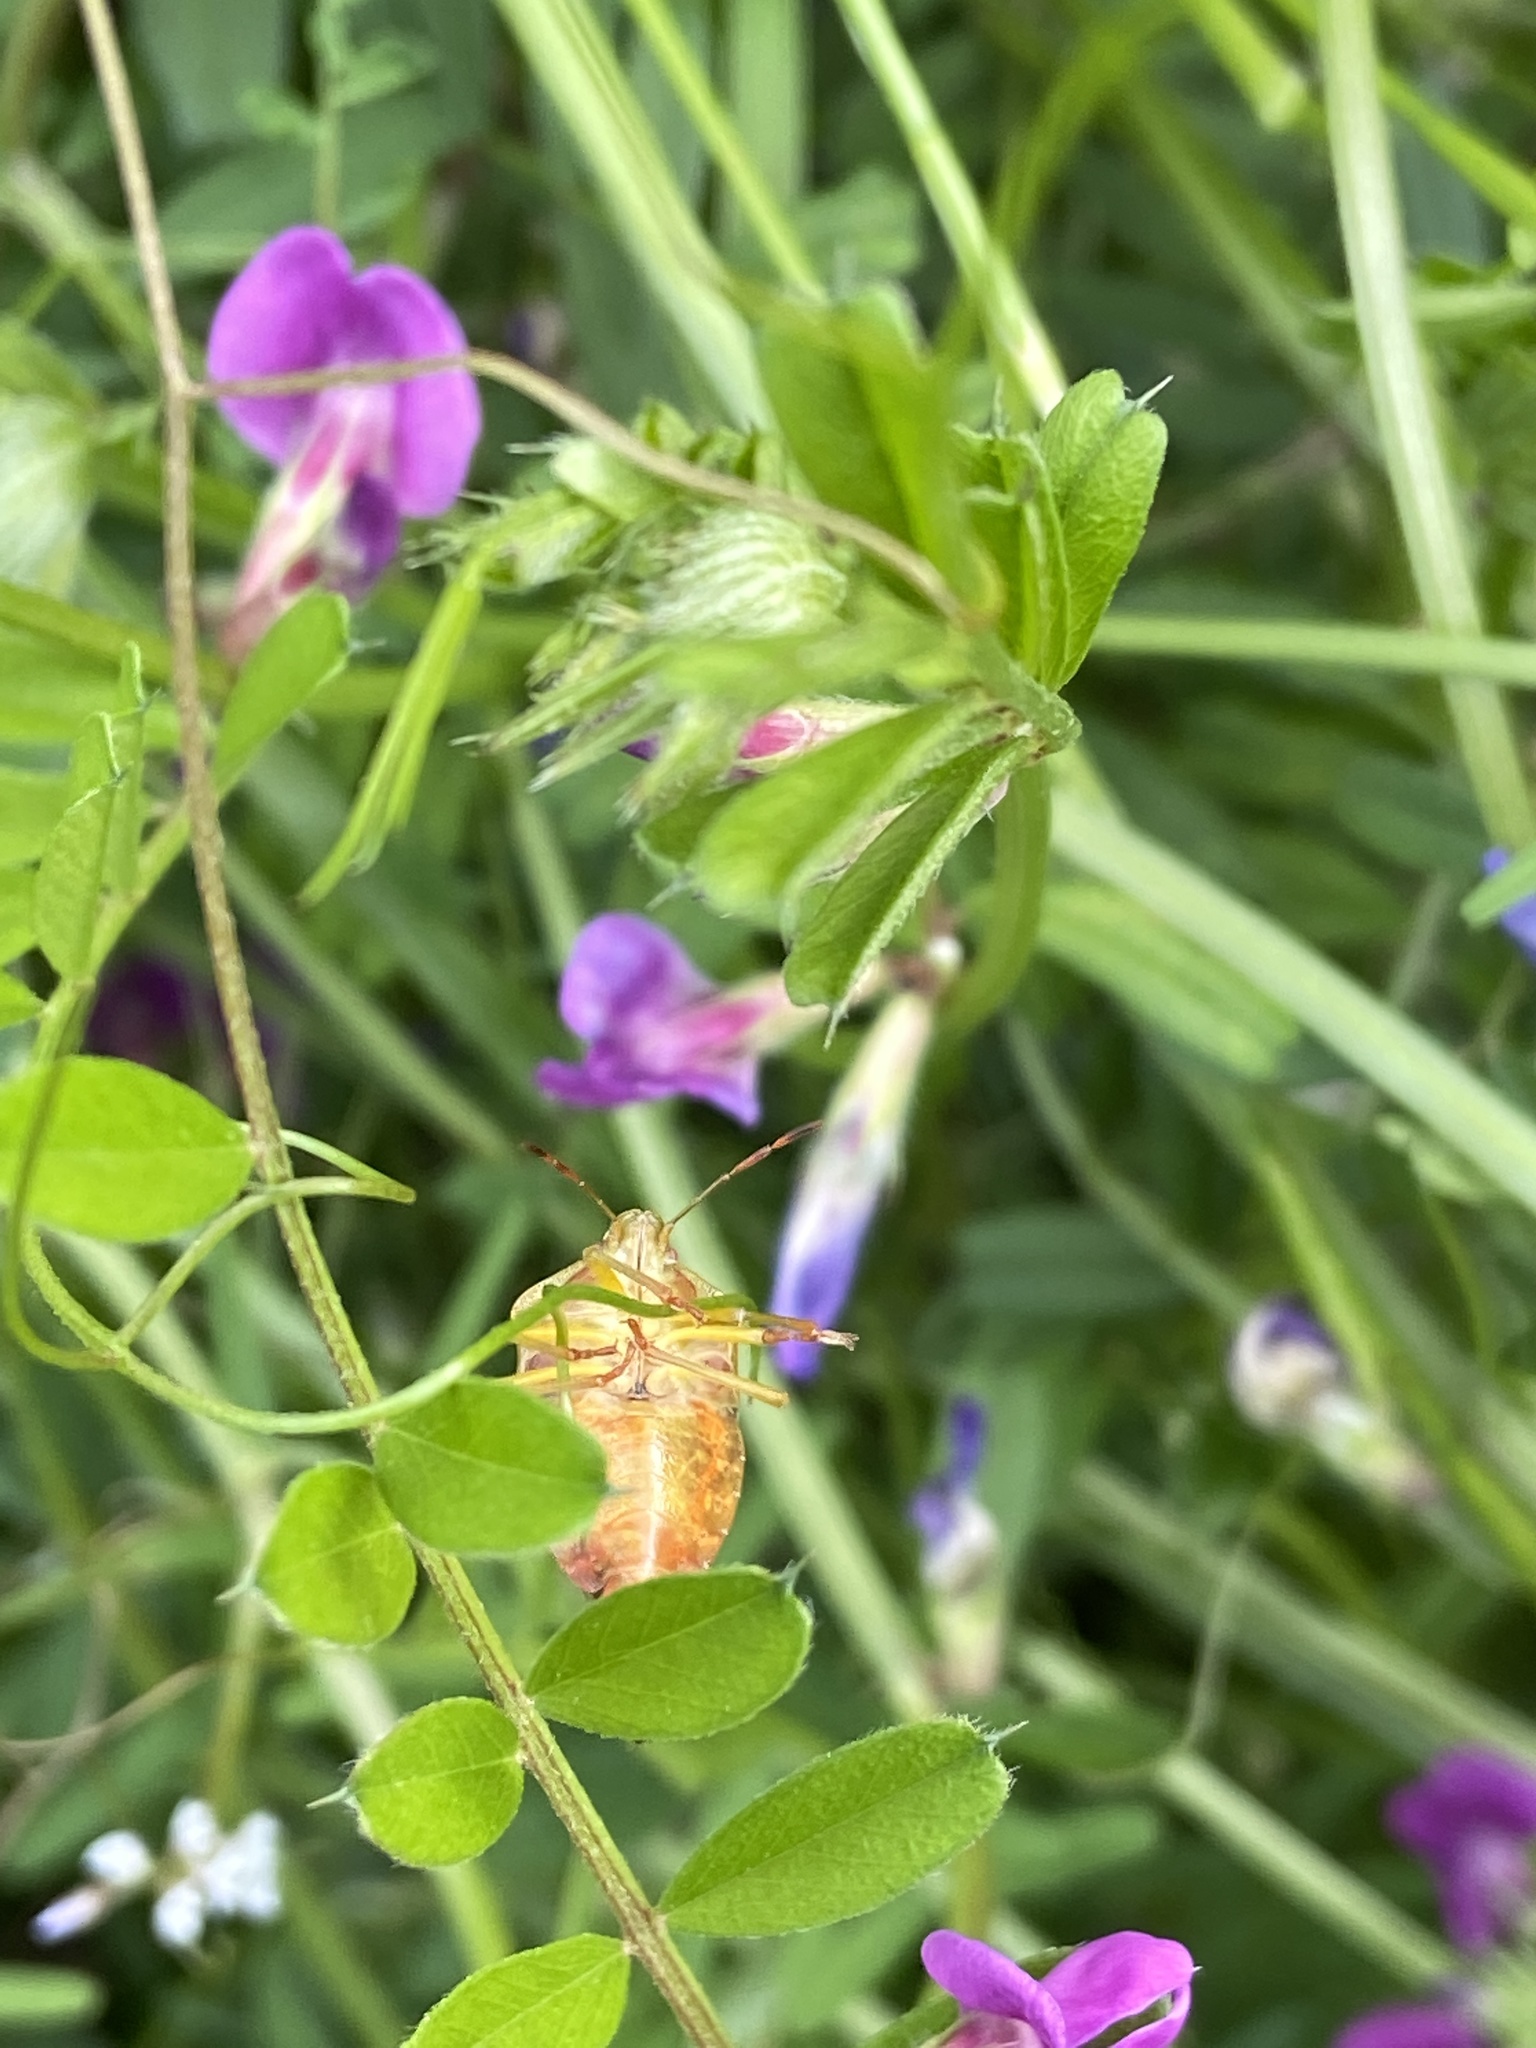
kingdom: Animalia
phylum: Arthropoda
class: Insecta
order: Hemiptera
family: Pentatomidae
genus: Palomena
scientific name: Palomena prasina
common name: Green shieldbug
